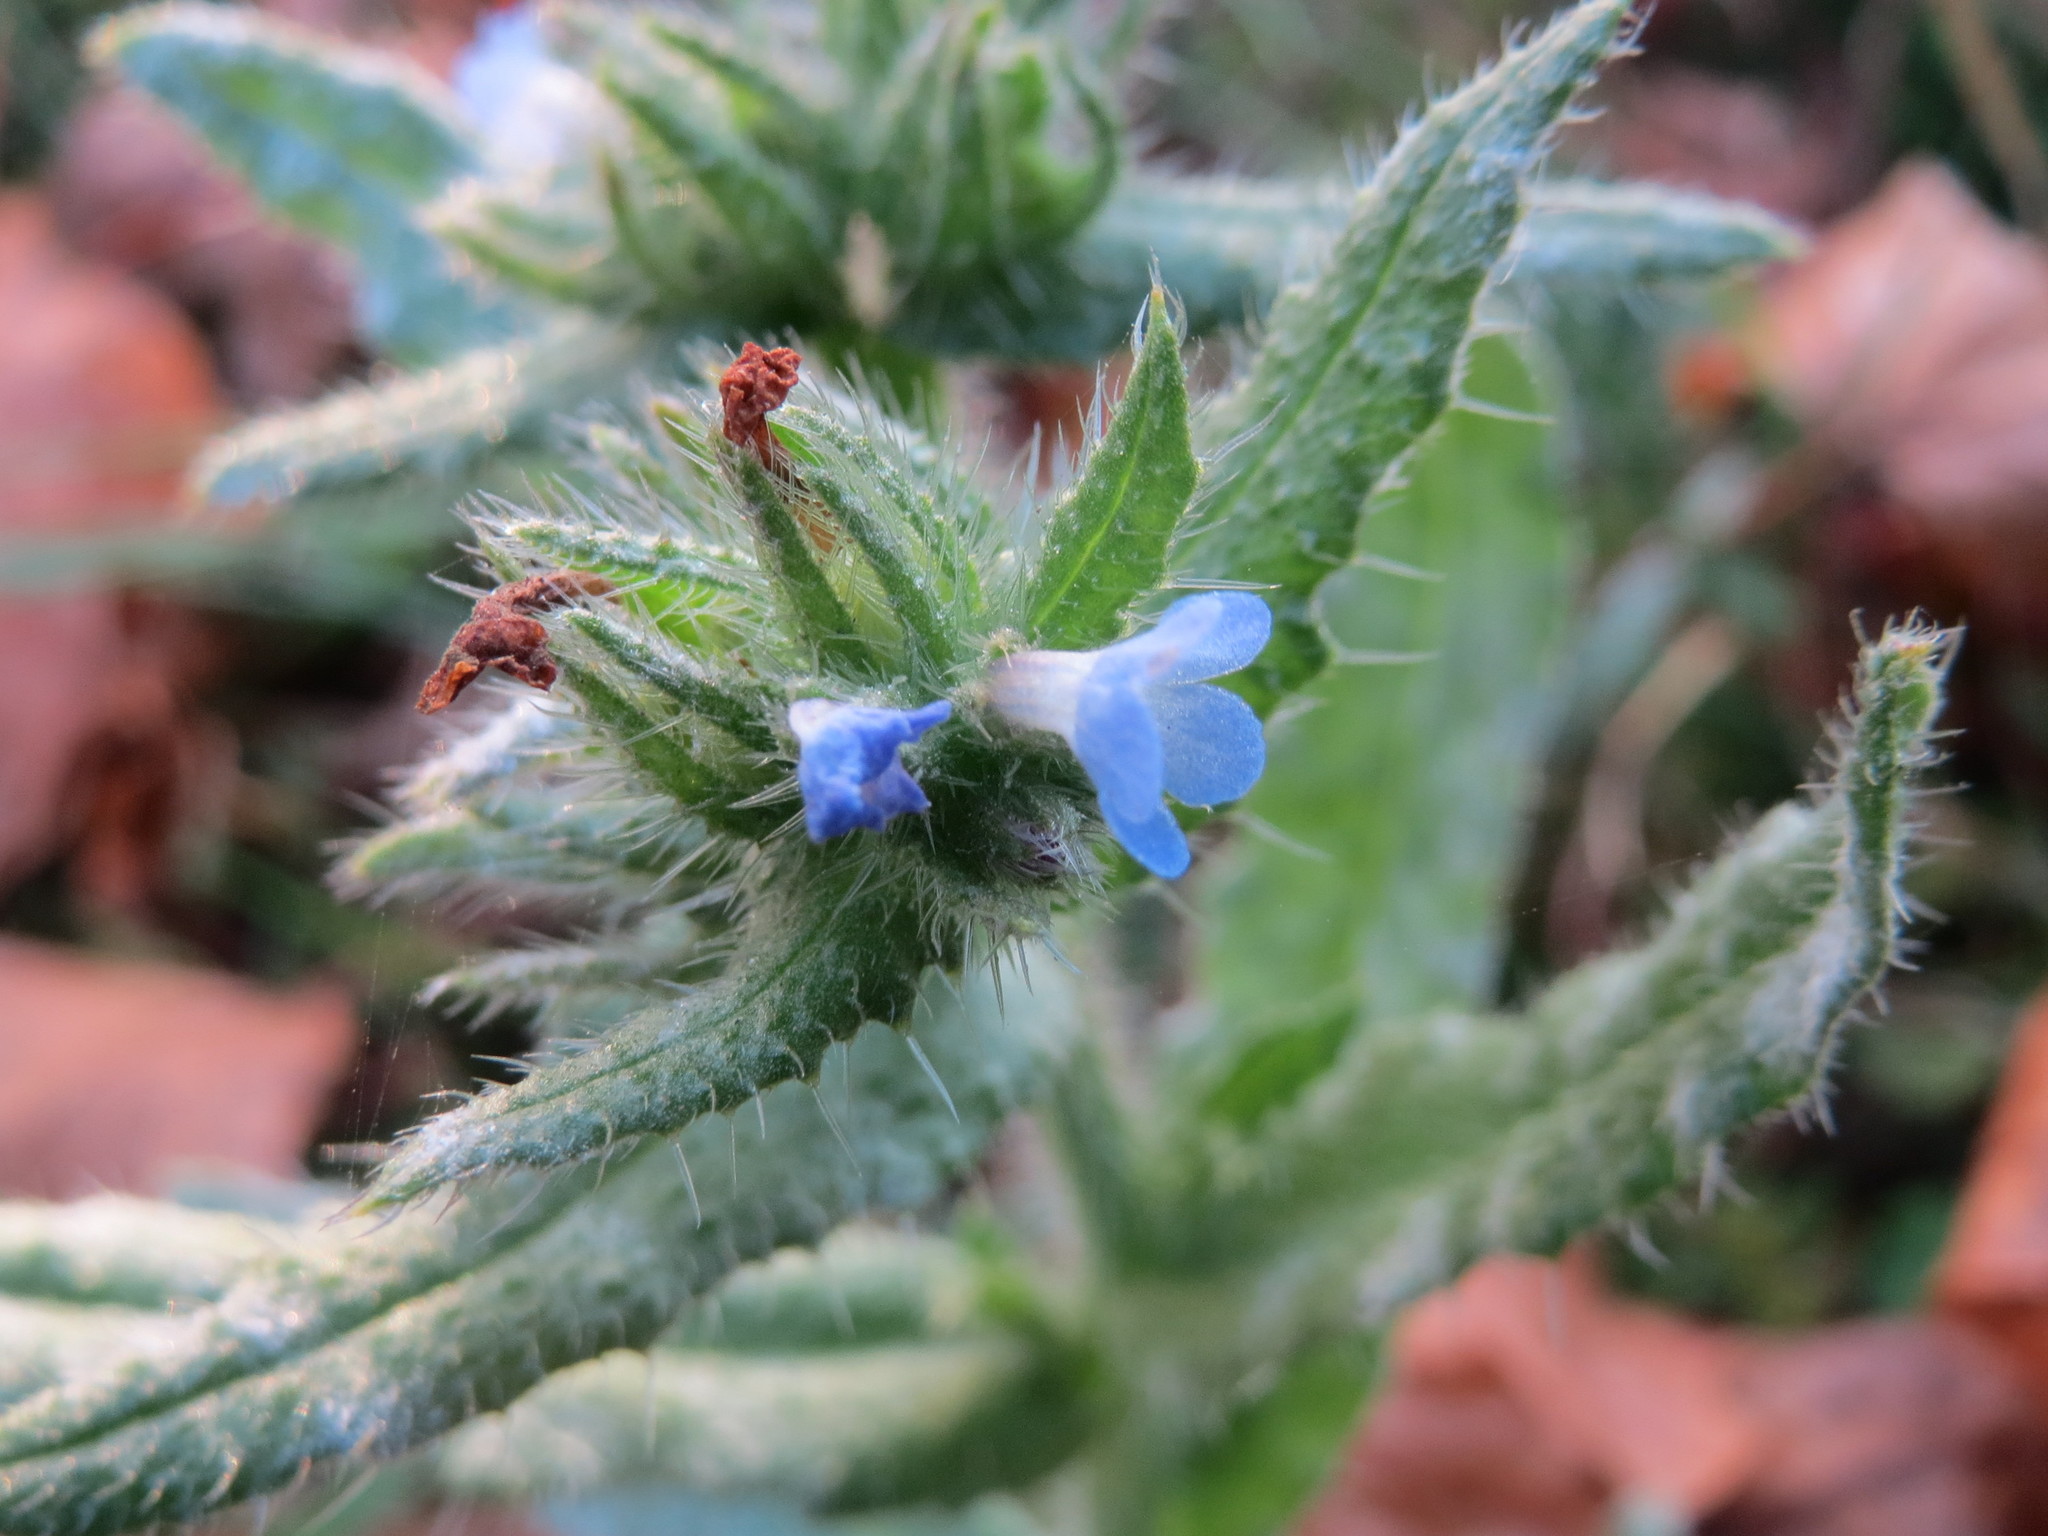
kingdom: Plantae
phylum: Tracheophyta
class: Magnoliopsida
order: Boraginales
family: Boraginaceae
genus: Lycopsis
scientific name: Lycopsis arvensis
